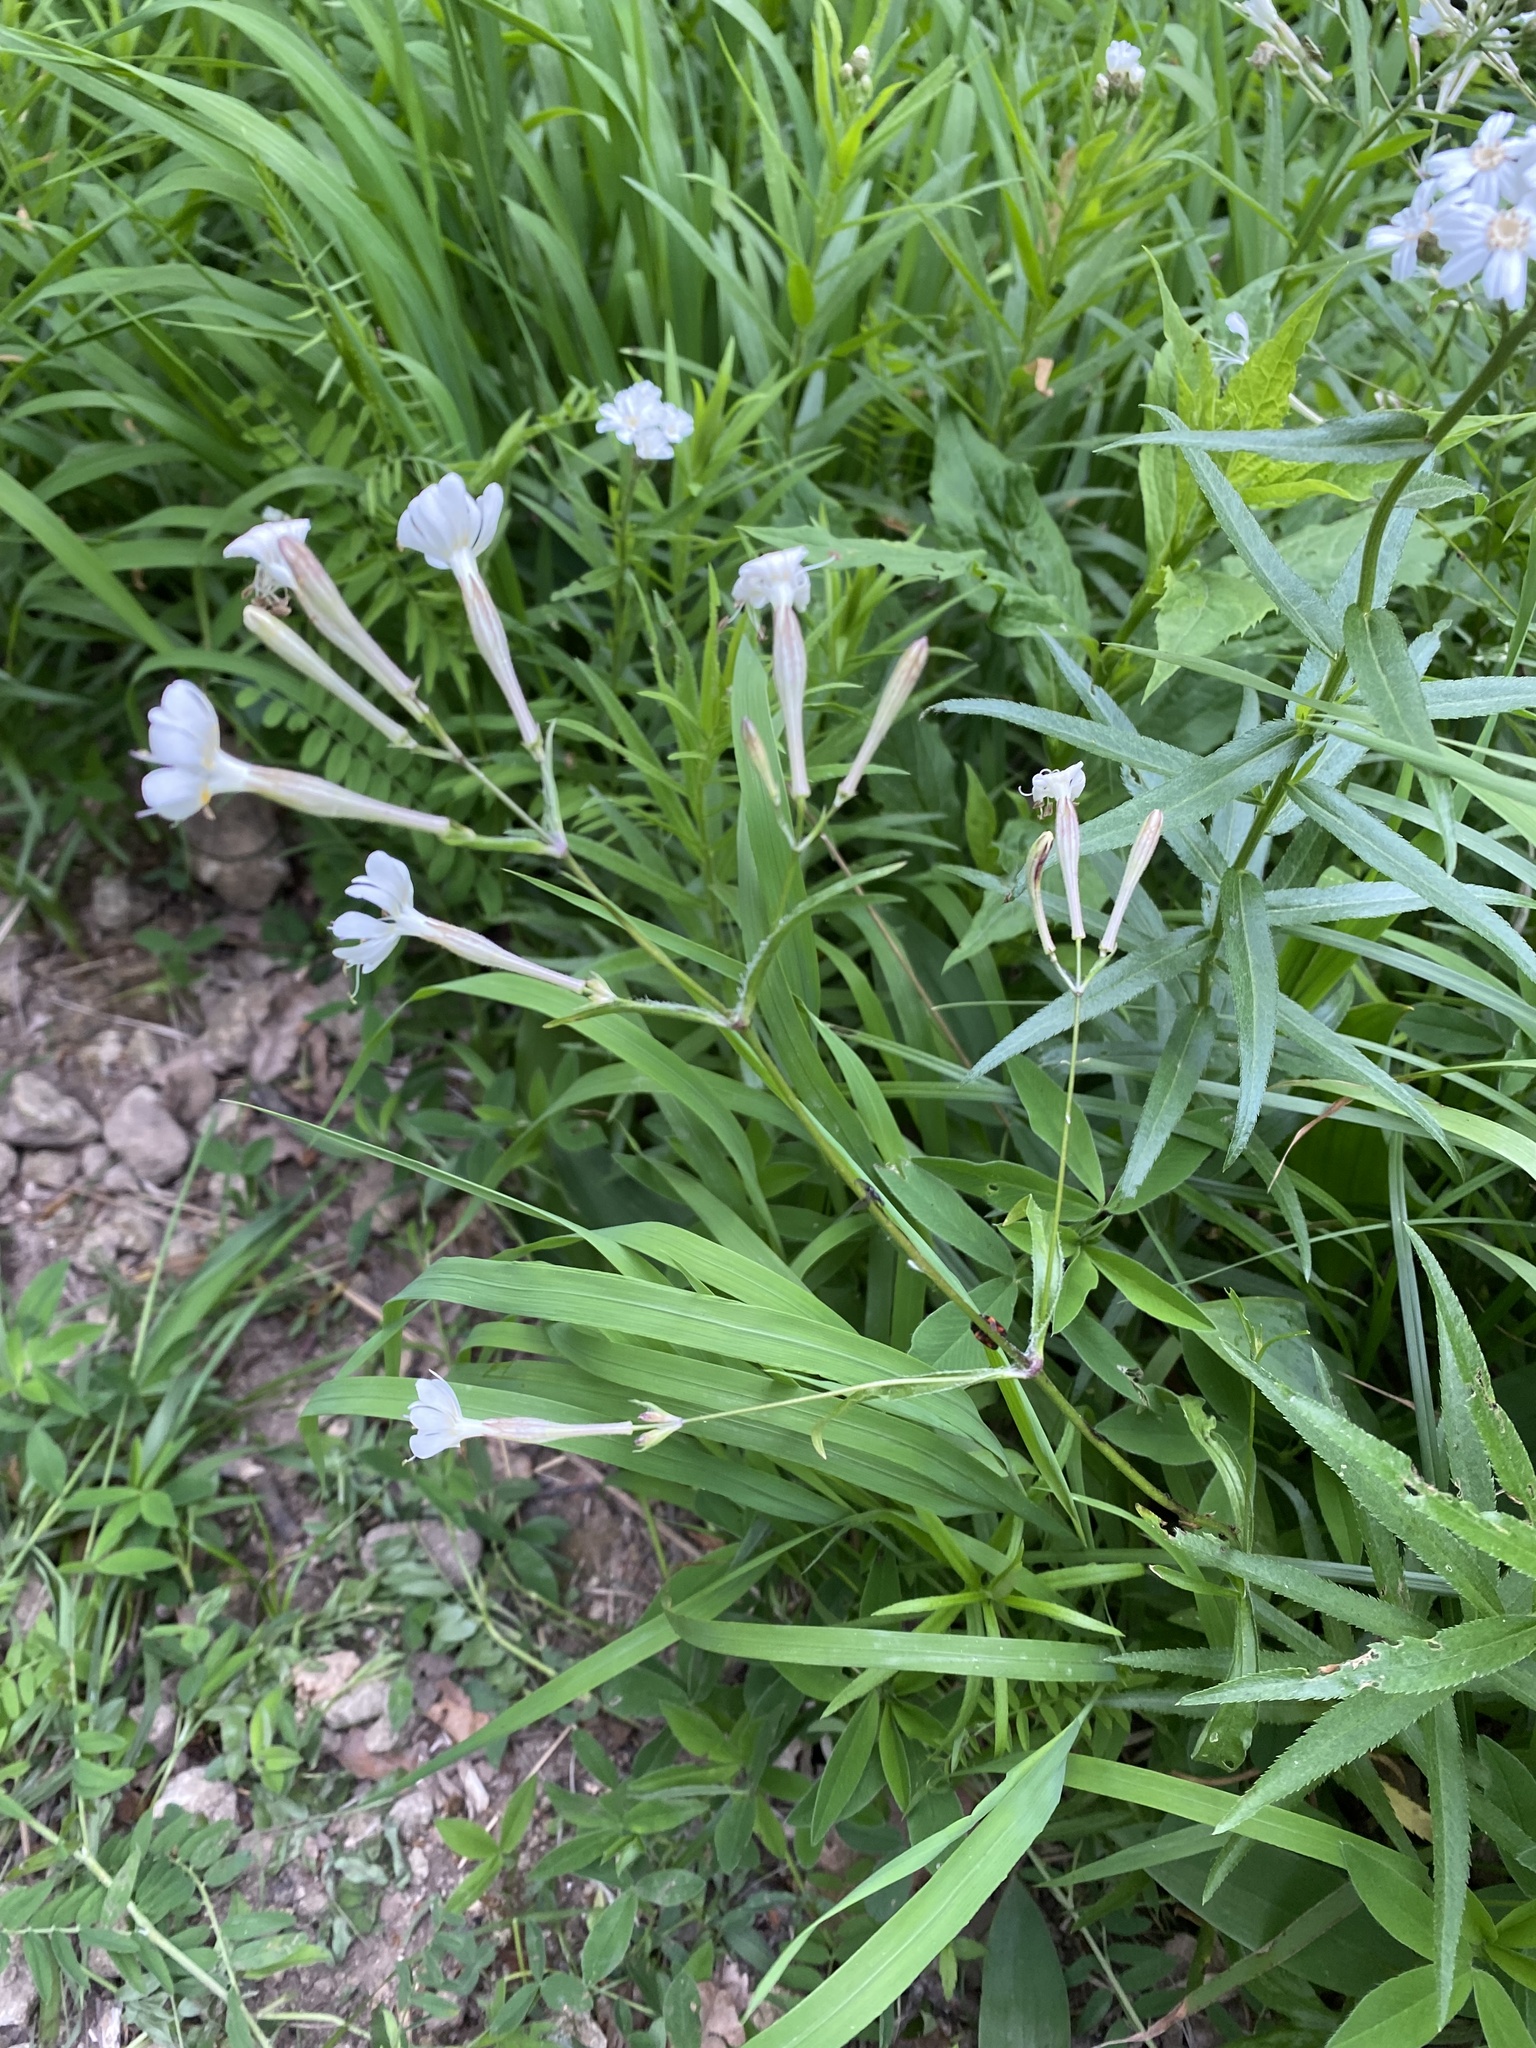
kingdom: Plantae
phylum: Tracheophyta
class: Magnoliopsida
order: Caryophyllales
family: Caryophyllaceae
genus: Silene
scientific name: Silene italica
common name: Italian catchfly
